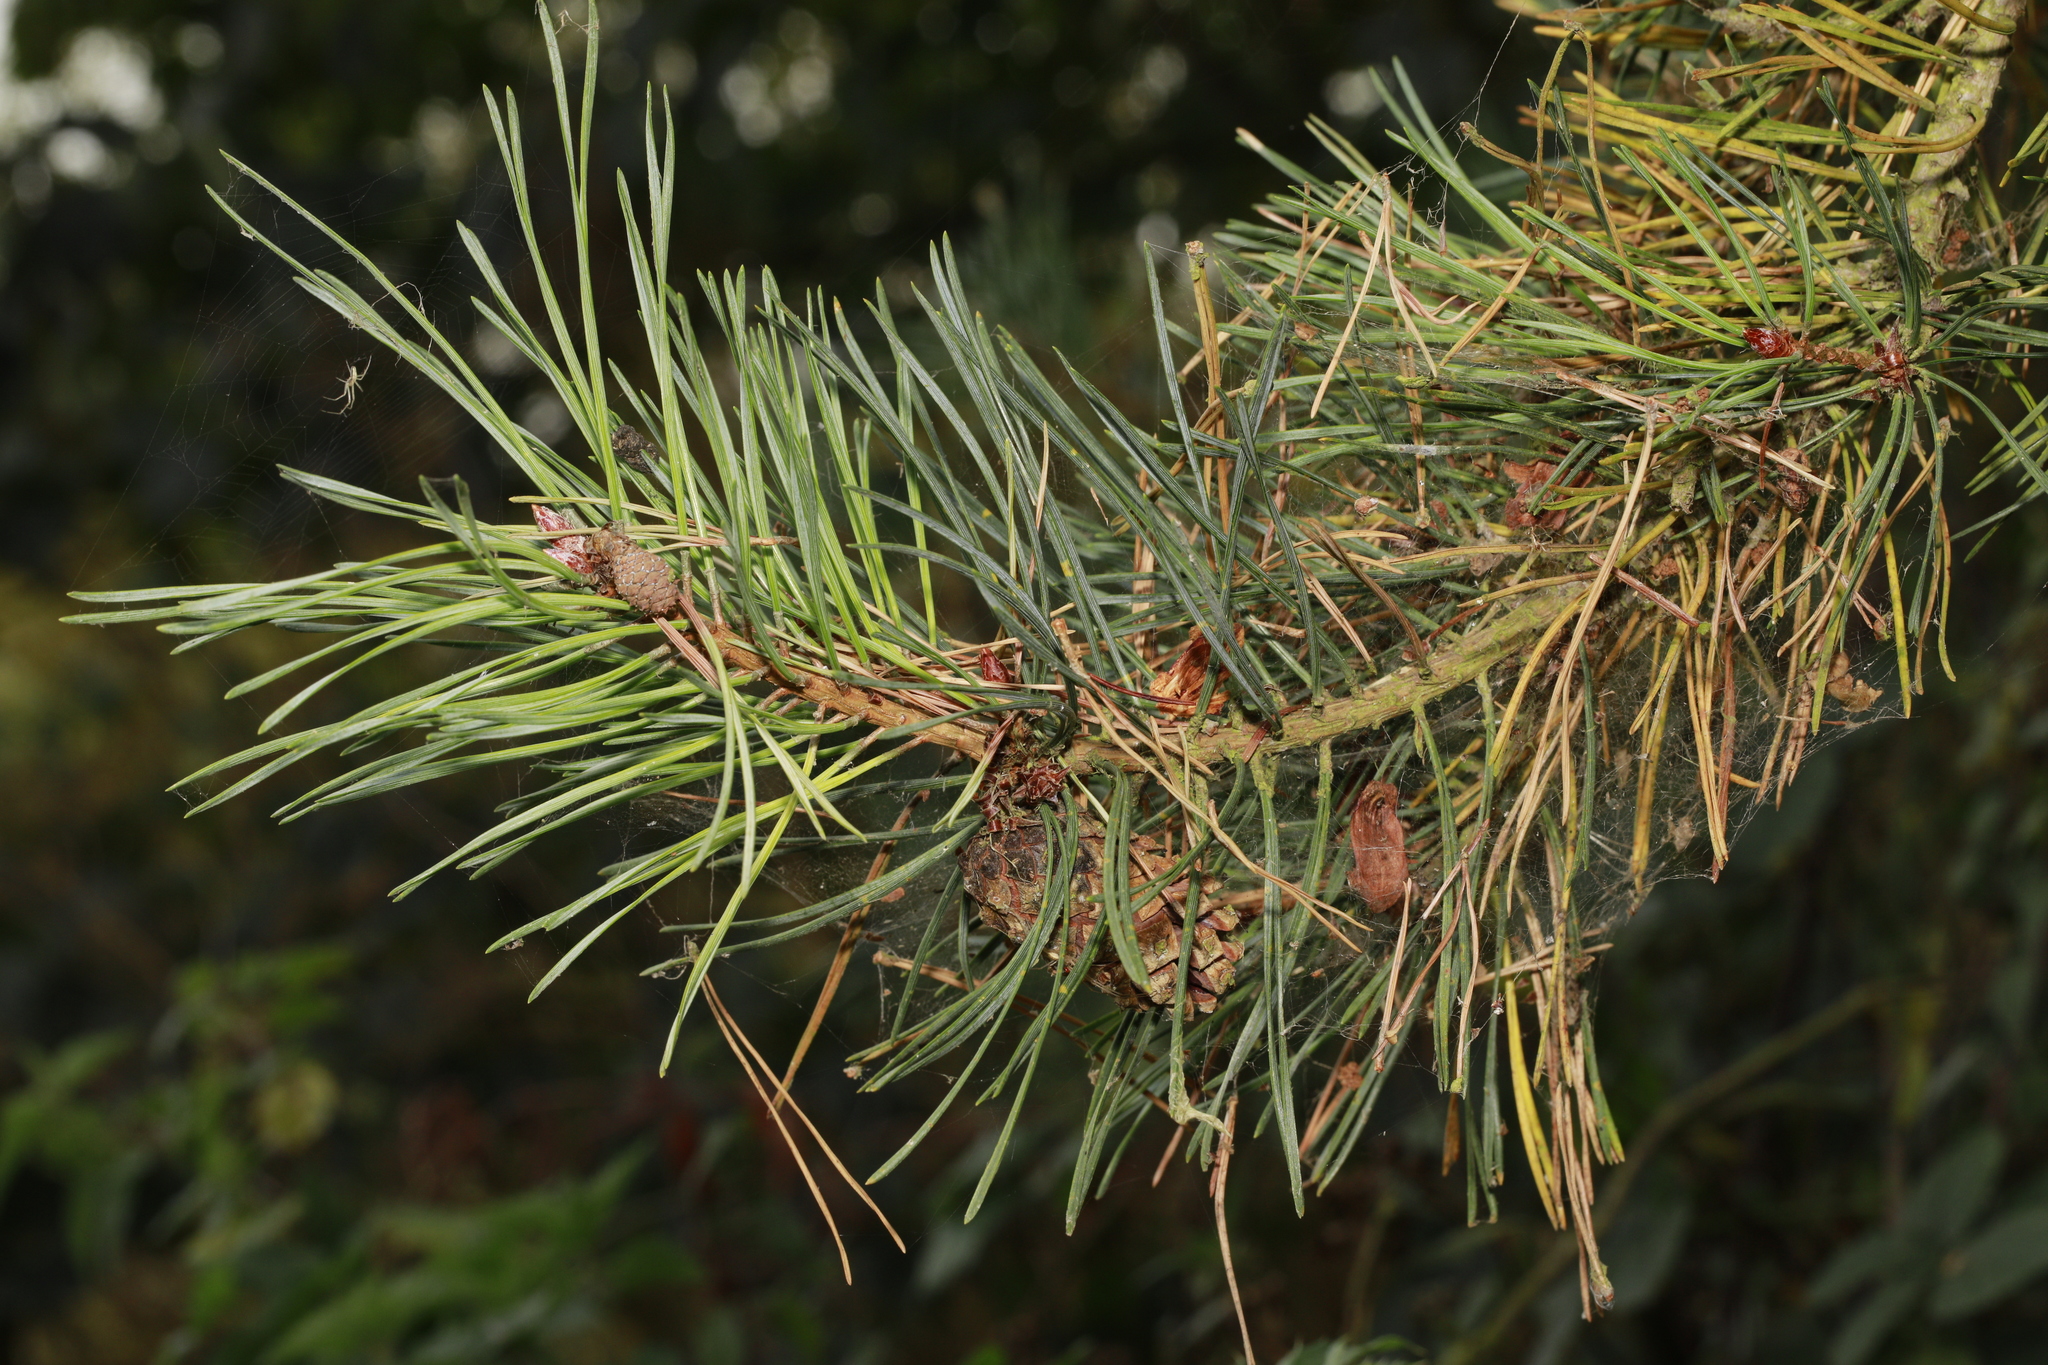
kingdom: Plantae
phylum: Tracheophyta
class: Pinopsida
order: Pinales
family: Pinaceae
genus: Pinus
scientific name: Pinus sylvestris
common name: Scots pine
